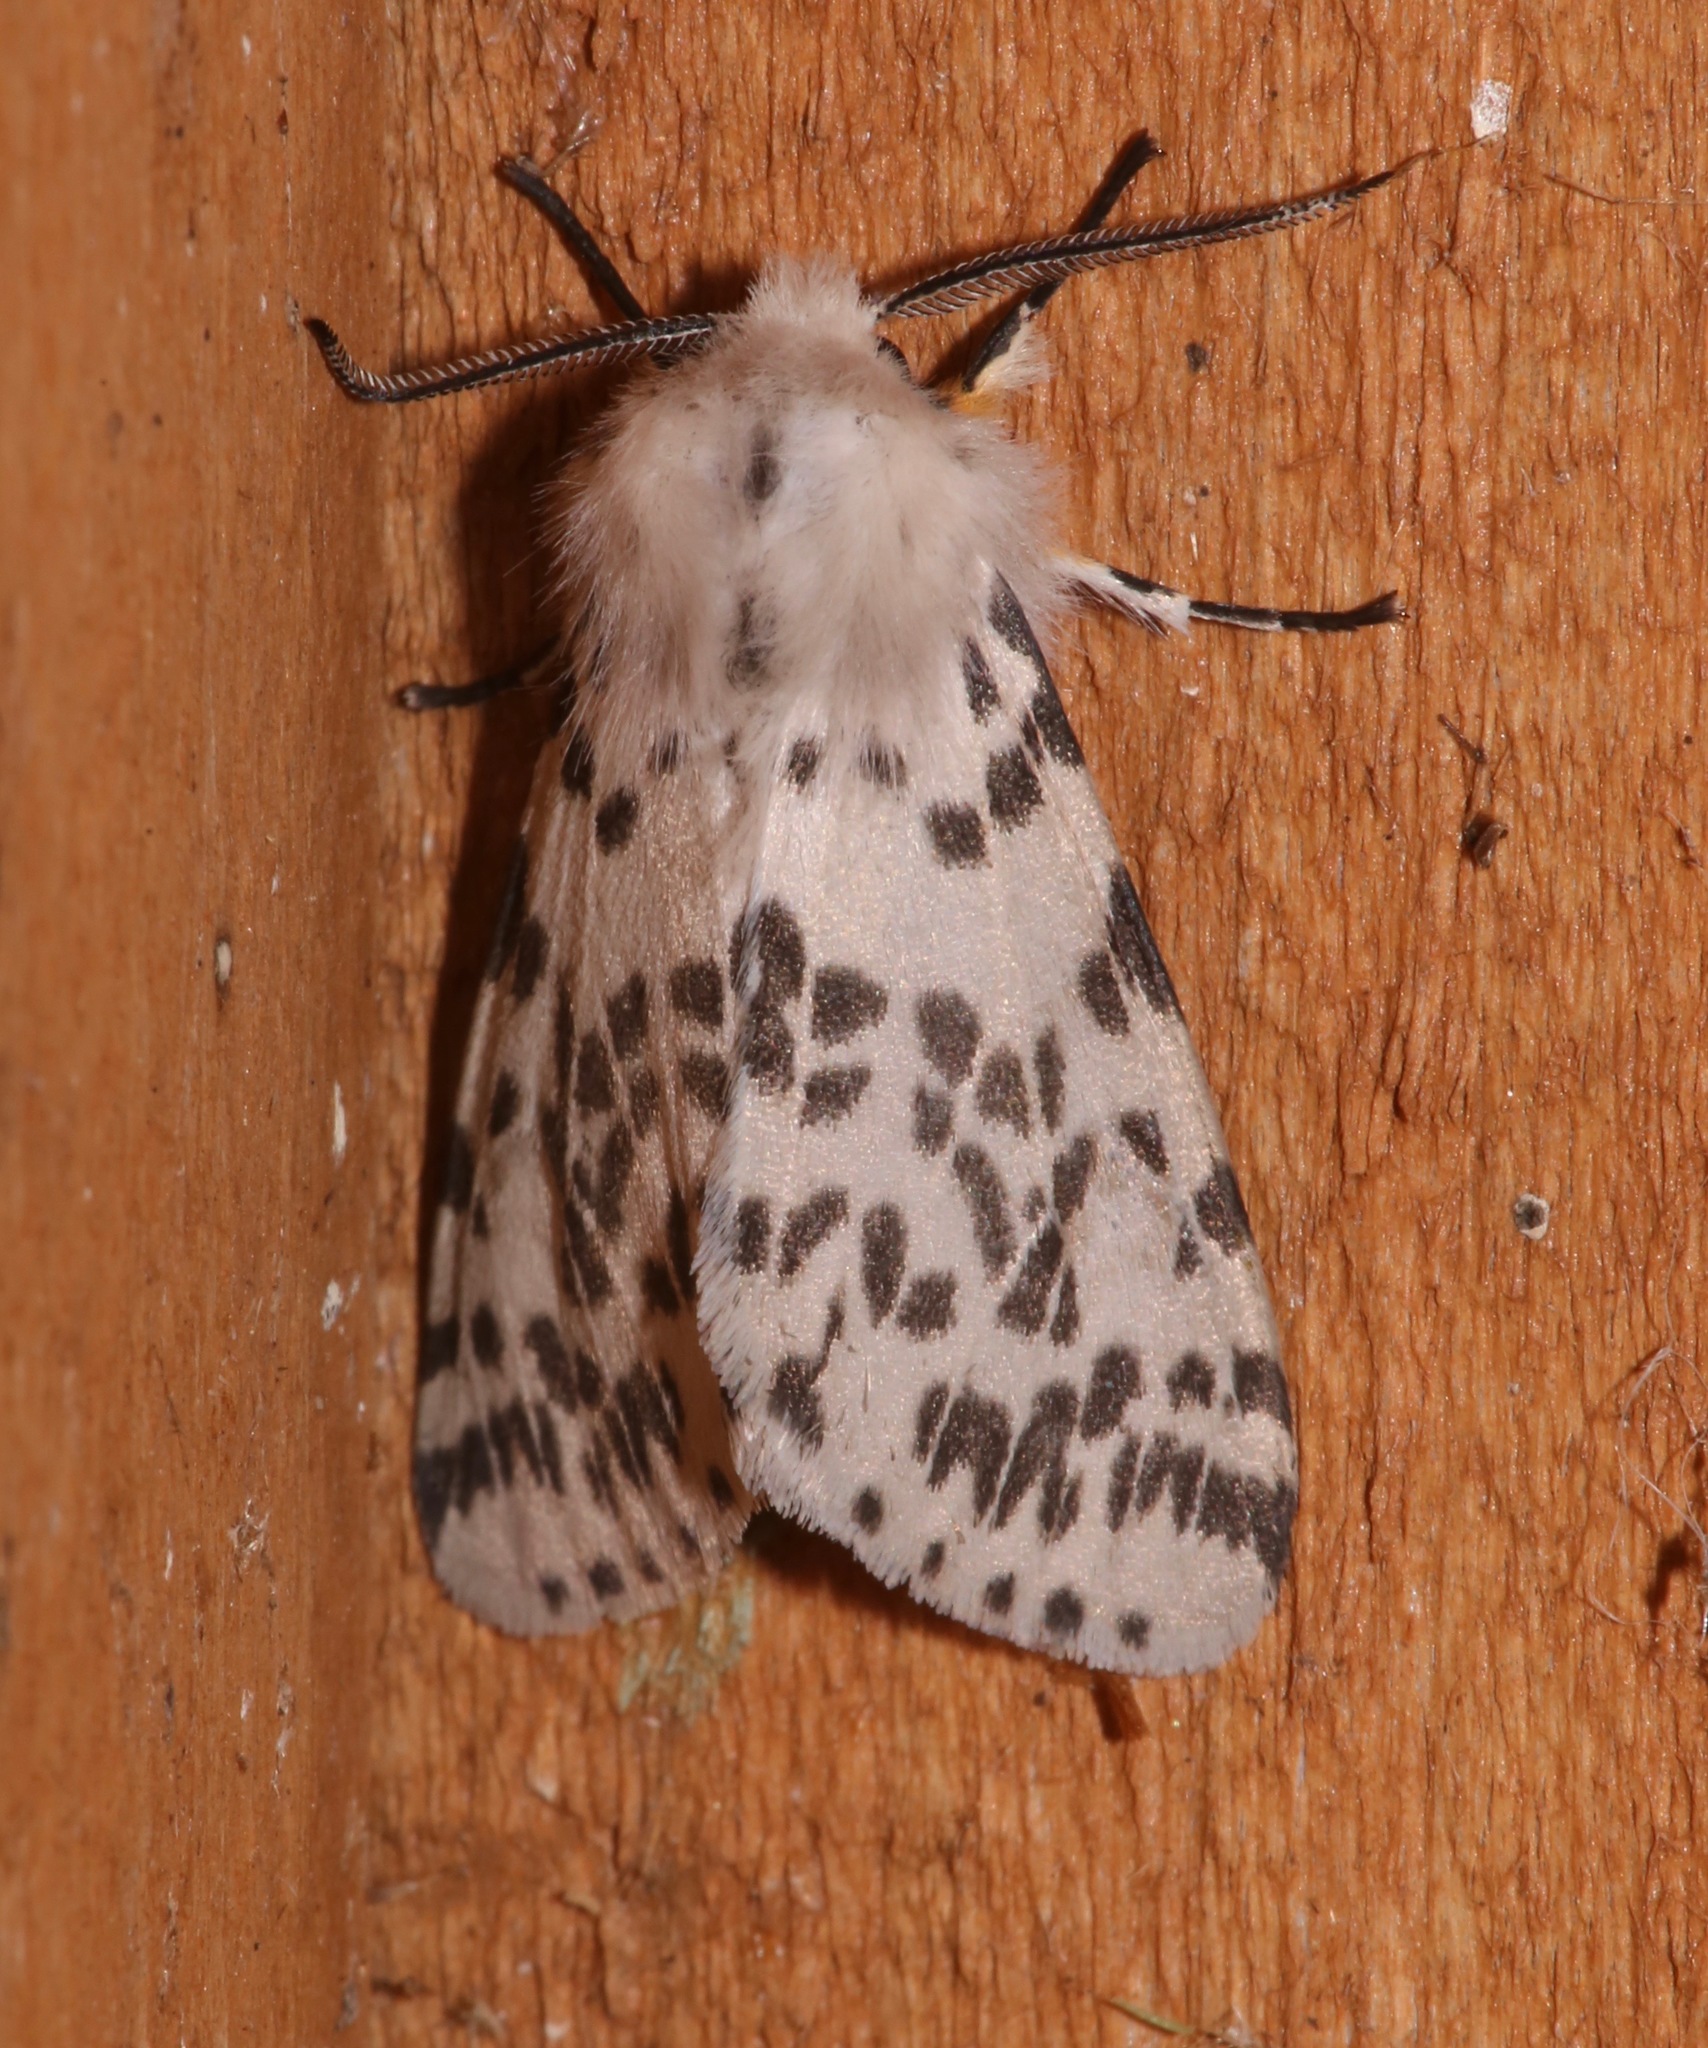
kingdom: Animalia
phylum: Arthropoda
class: Insecta
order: Lepidoptera
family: Erebidae
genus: Hyphantria
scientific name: Hyphantria cunea
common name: American white moth
